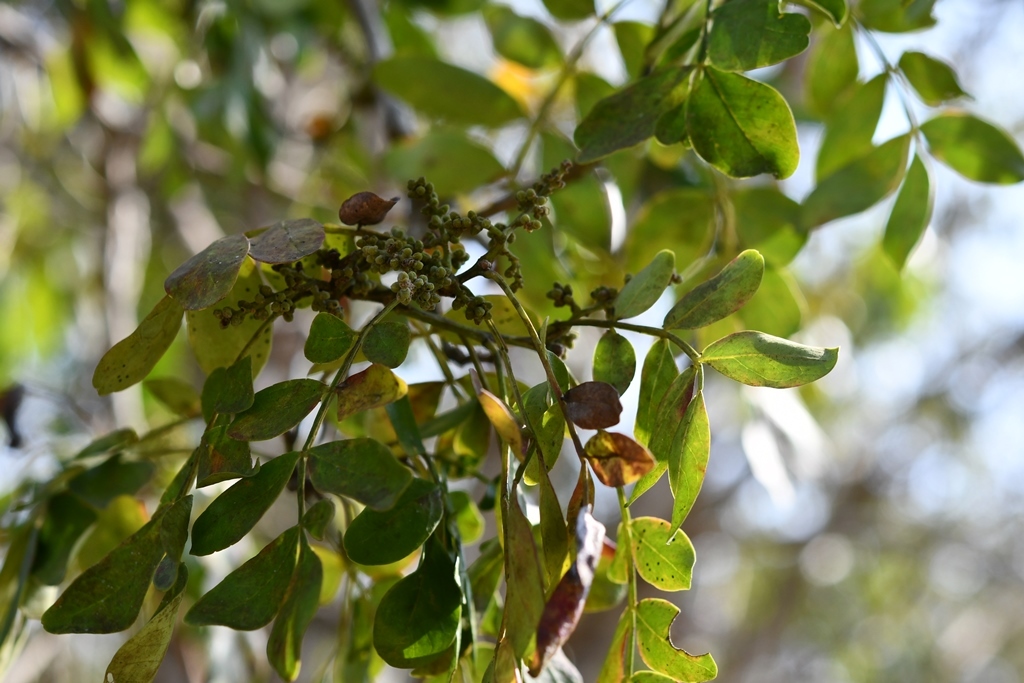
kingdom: Plantae
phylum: Tracheophyta
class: Magnoliopsida
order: Sapindales
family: Rutaceae
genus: Zanthoxylum
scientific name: Zanthoxylum quassiifolium
